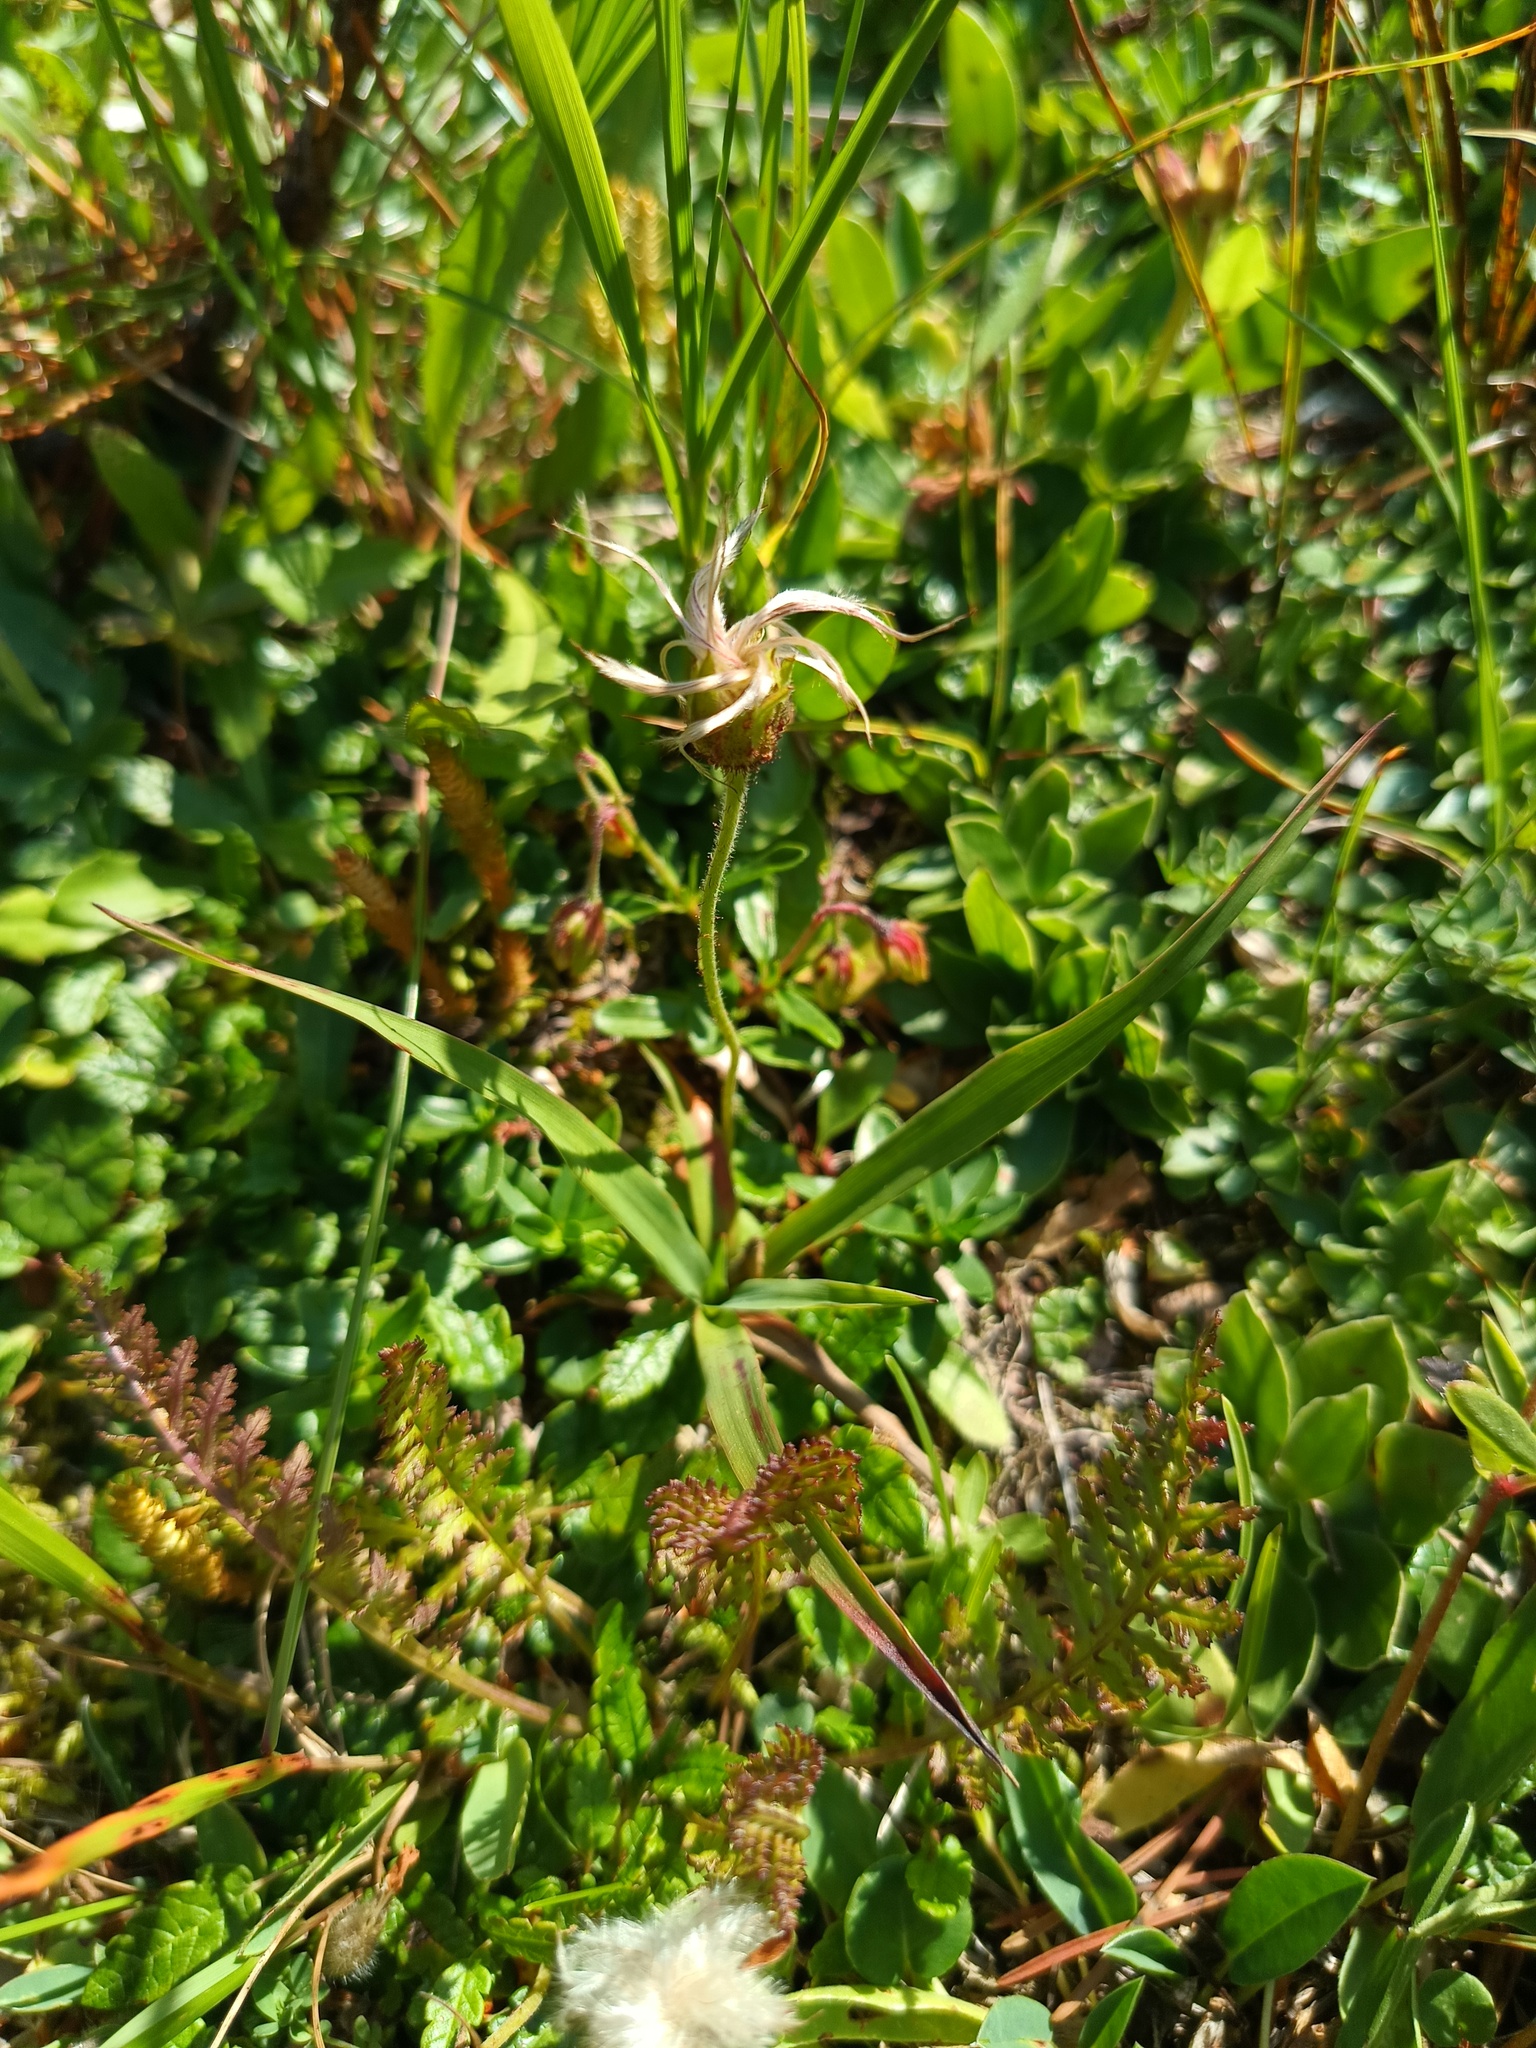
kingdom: Plantae
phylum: Tracheophyta
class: Magnoliopsida
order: Rosales
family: Rosaceae
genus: Dryas
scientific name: Dryas octopetala
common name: Eight-petal mountain-avens
